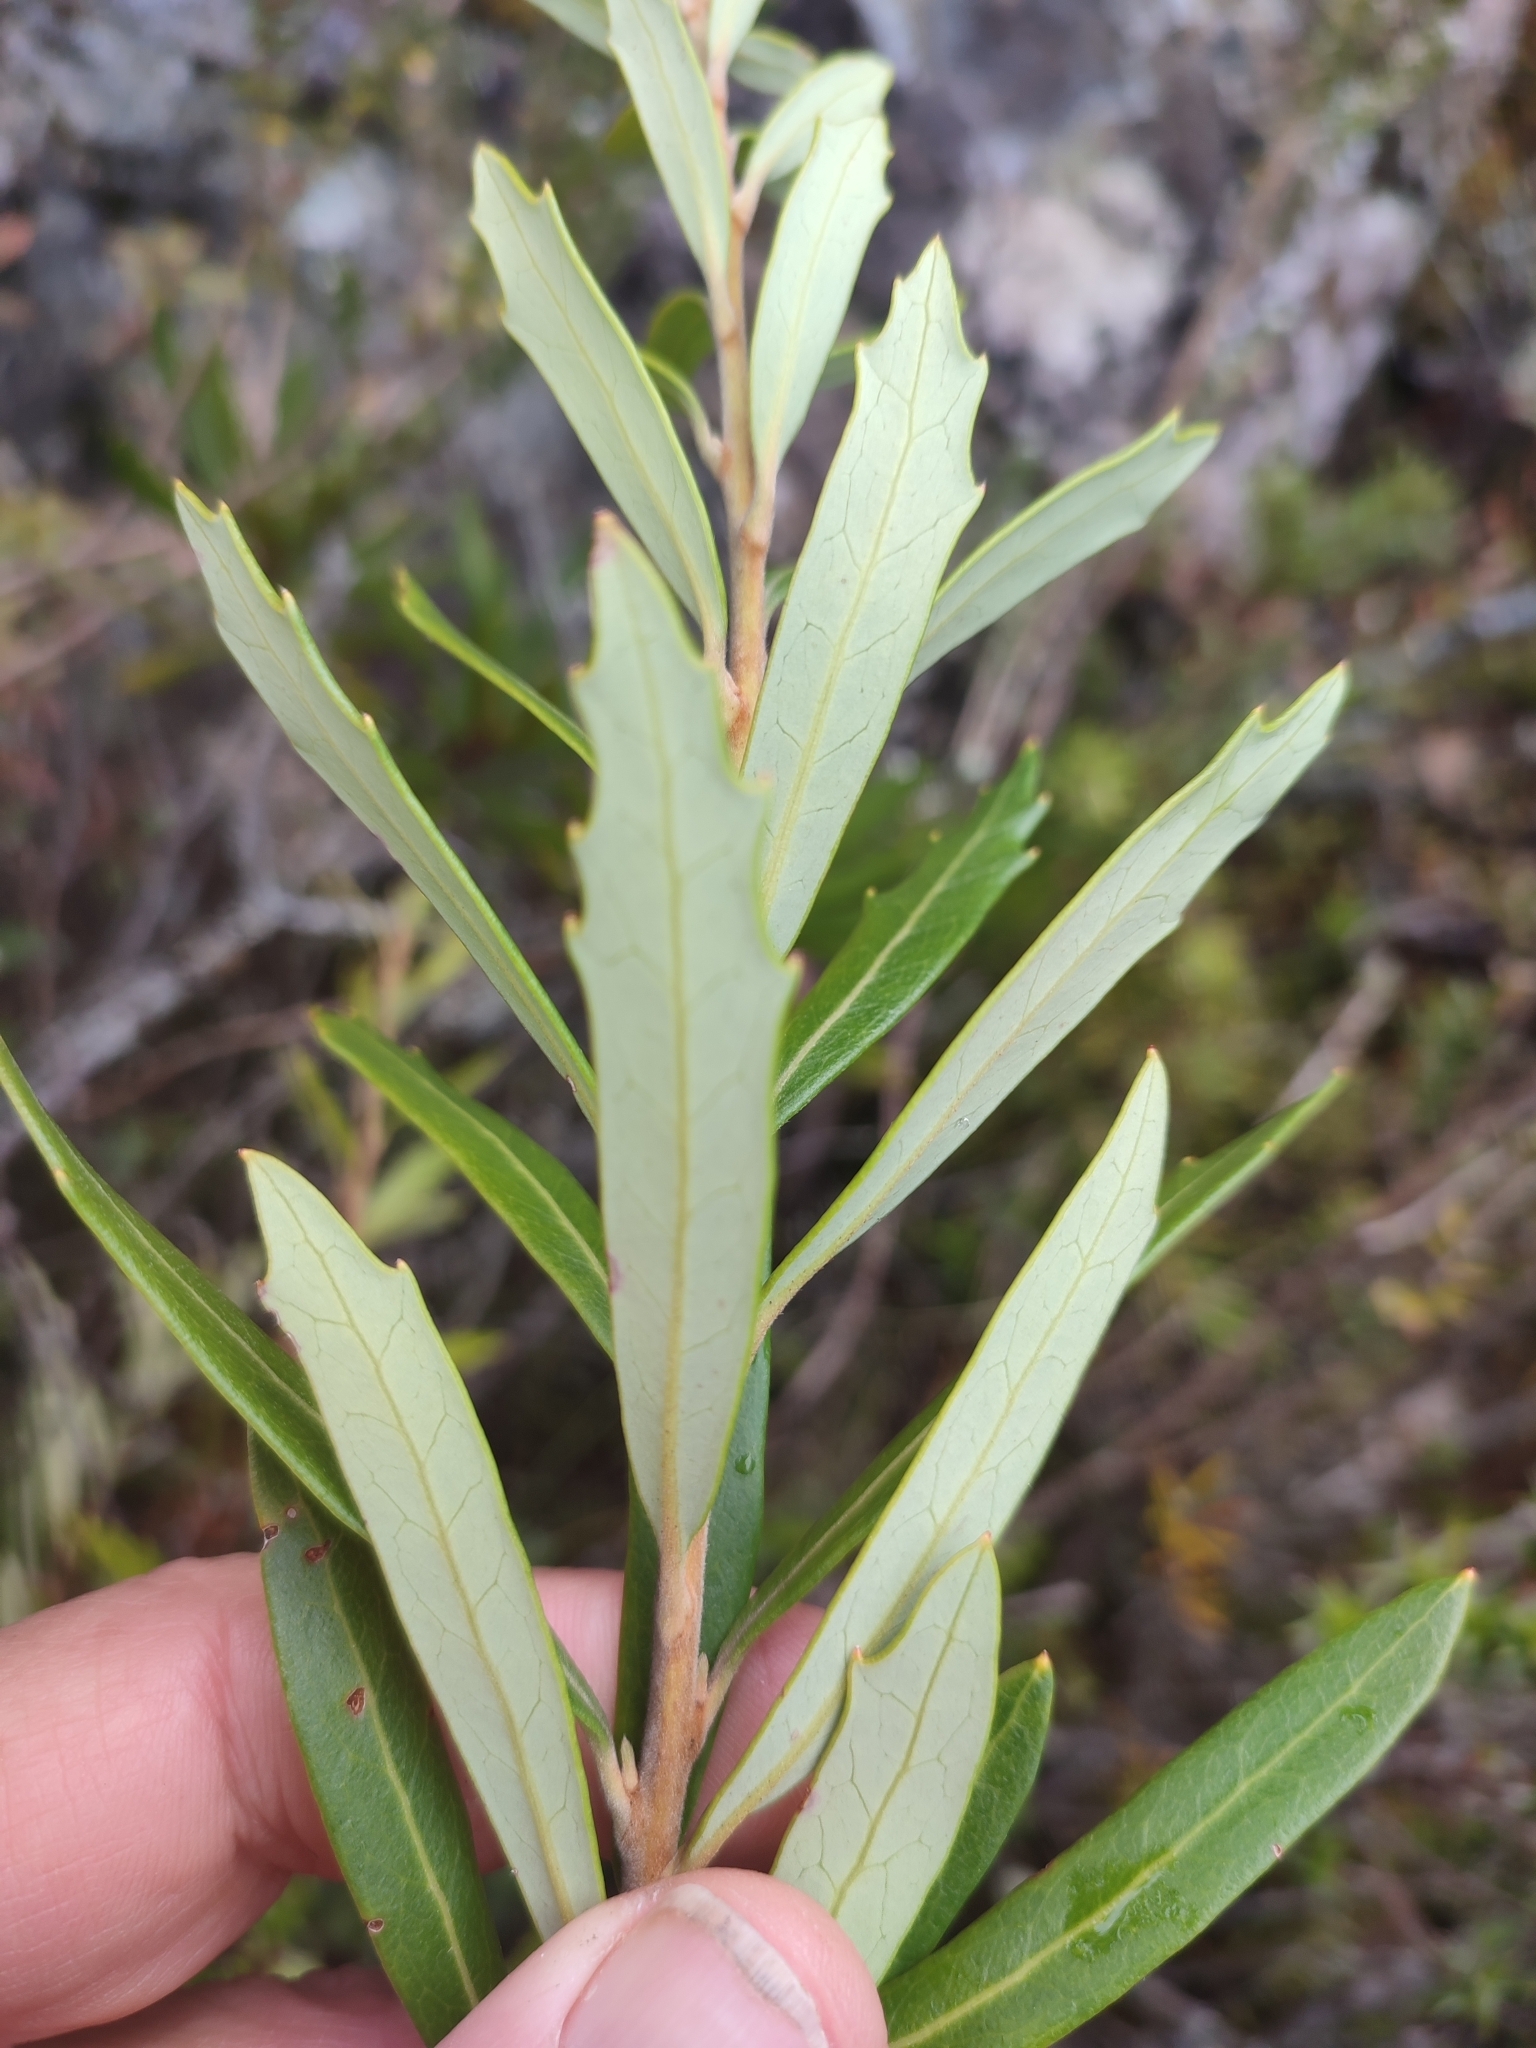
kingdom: Plantae
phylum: Tracheophyta
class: Magnoliopsida
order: Proteales
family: Proteaceae
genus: Orites
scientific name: Orites diversifolius
